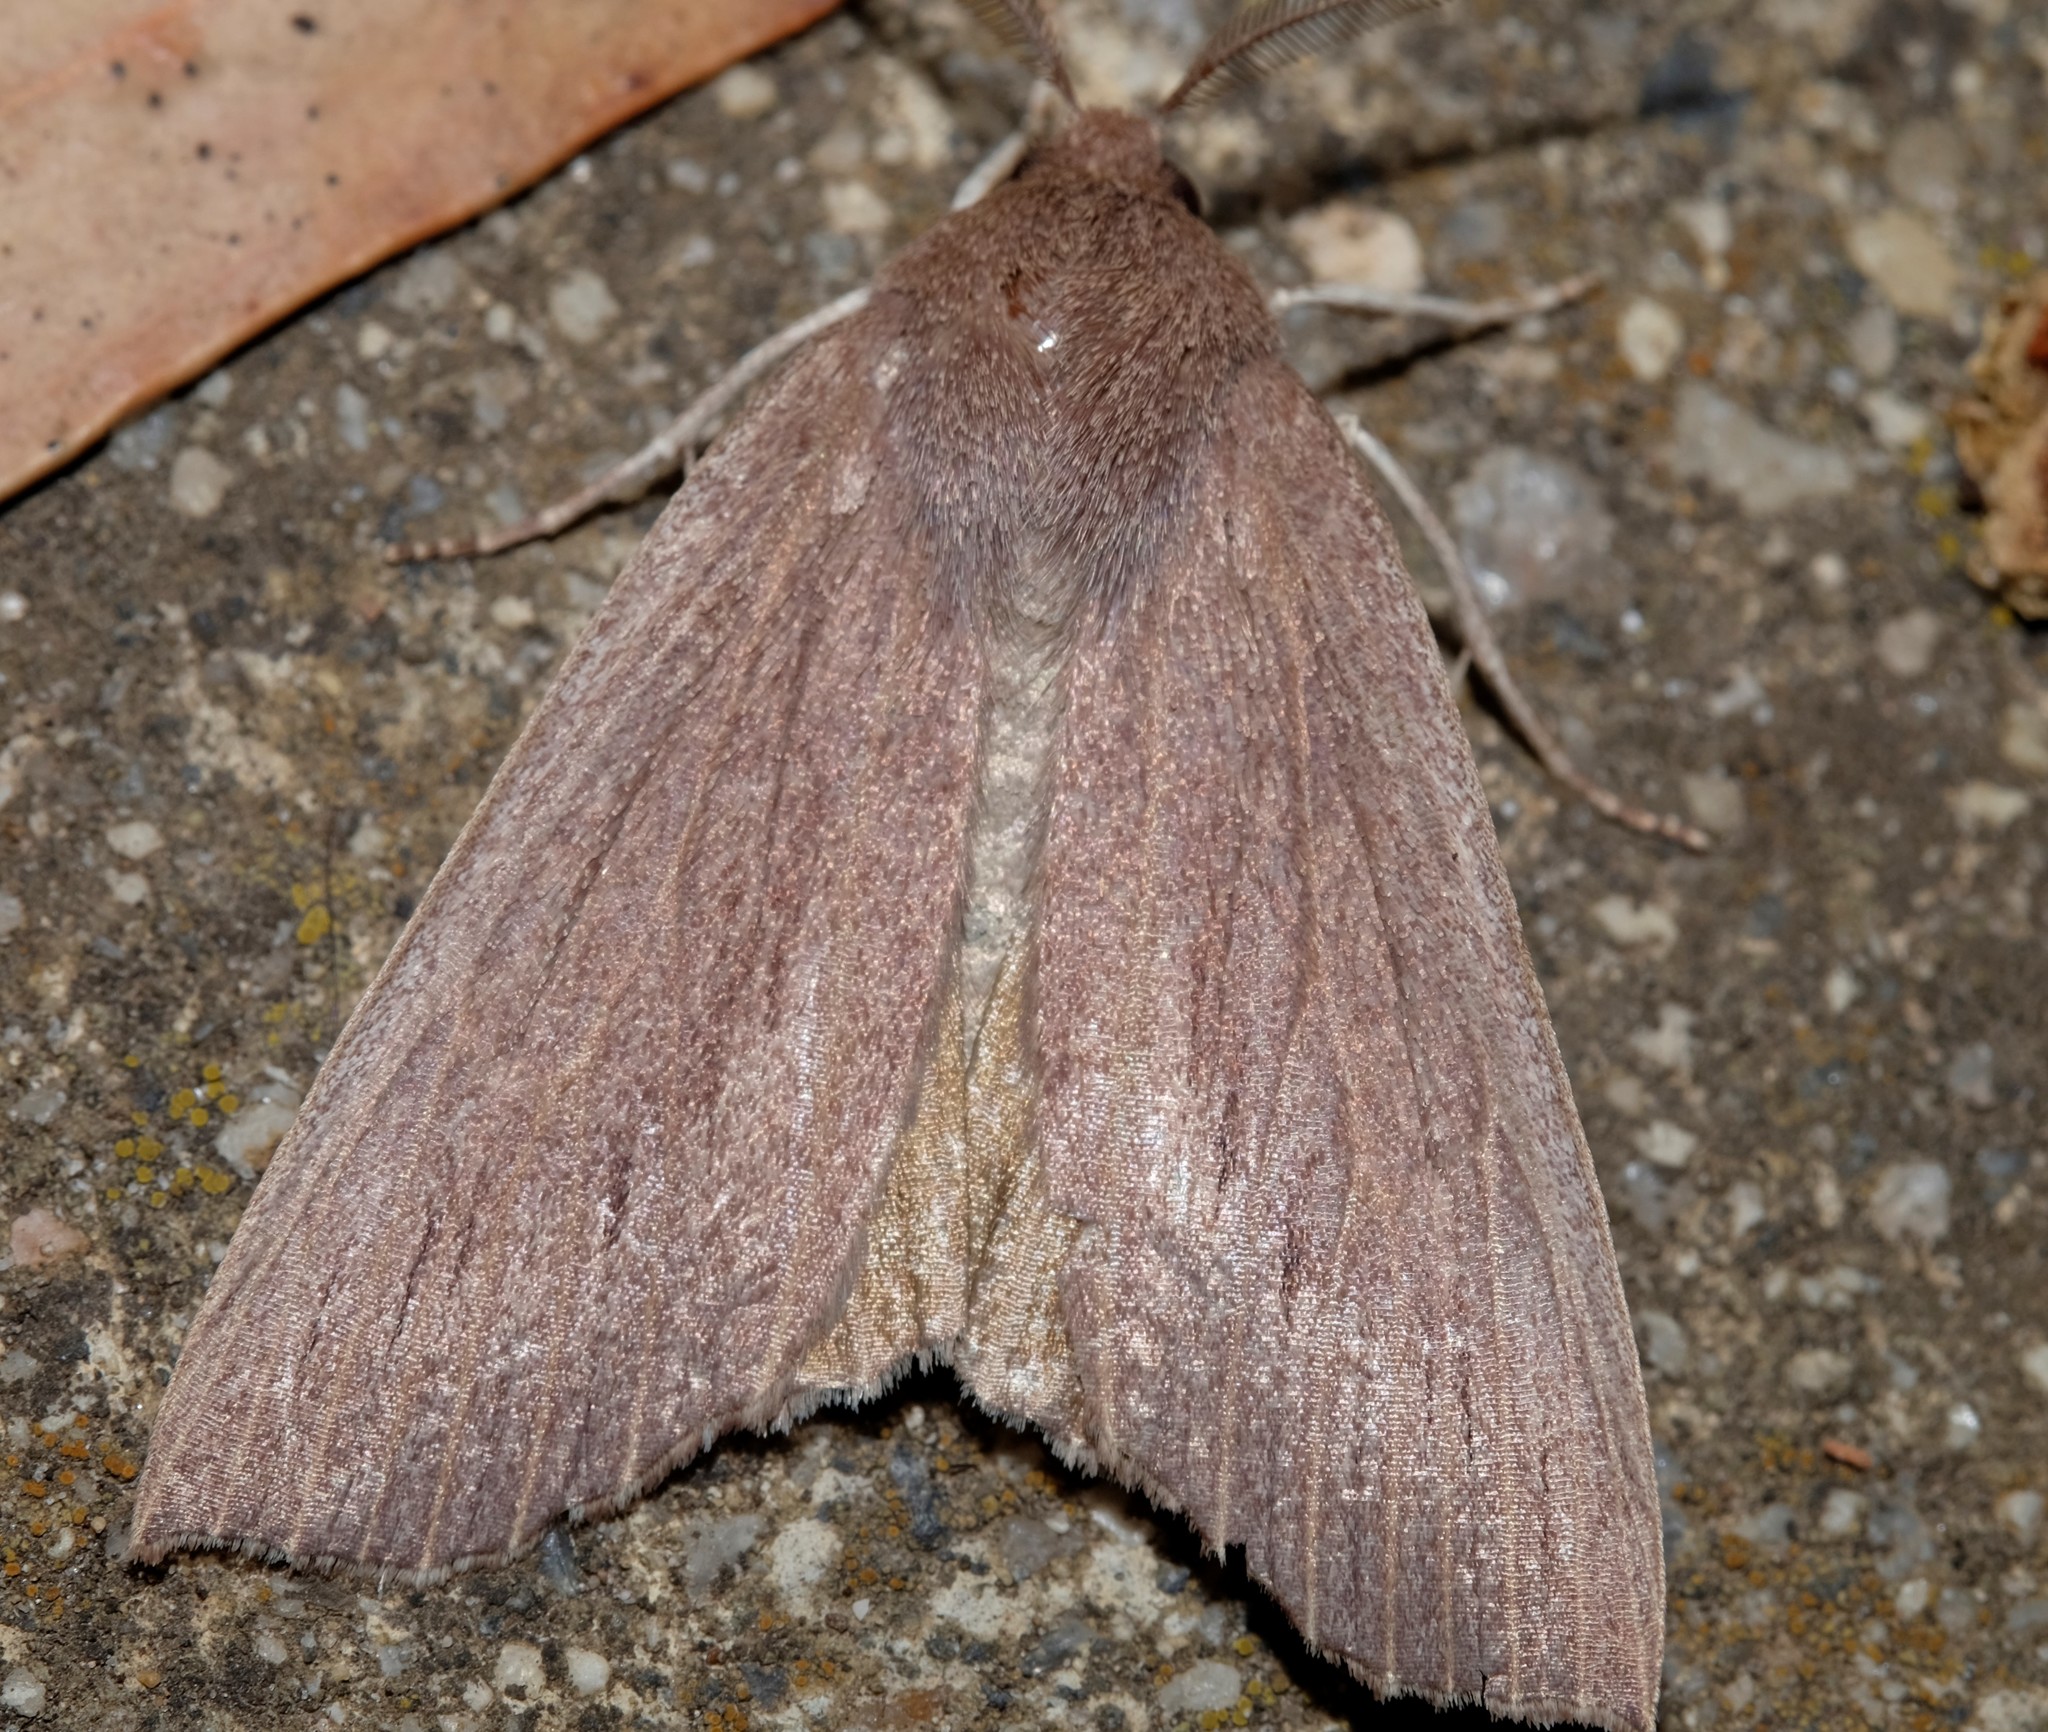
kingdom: Animalia
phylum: Arthropoda
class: Insecta
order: Lepidoptera
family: Geometridae
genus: Palleopa
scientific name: Palleopa innotata
